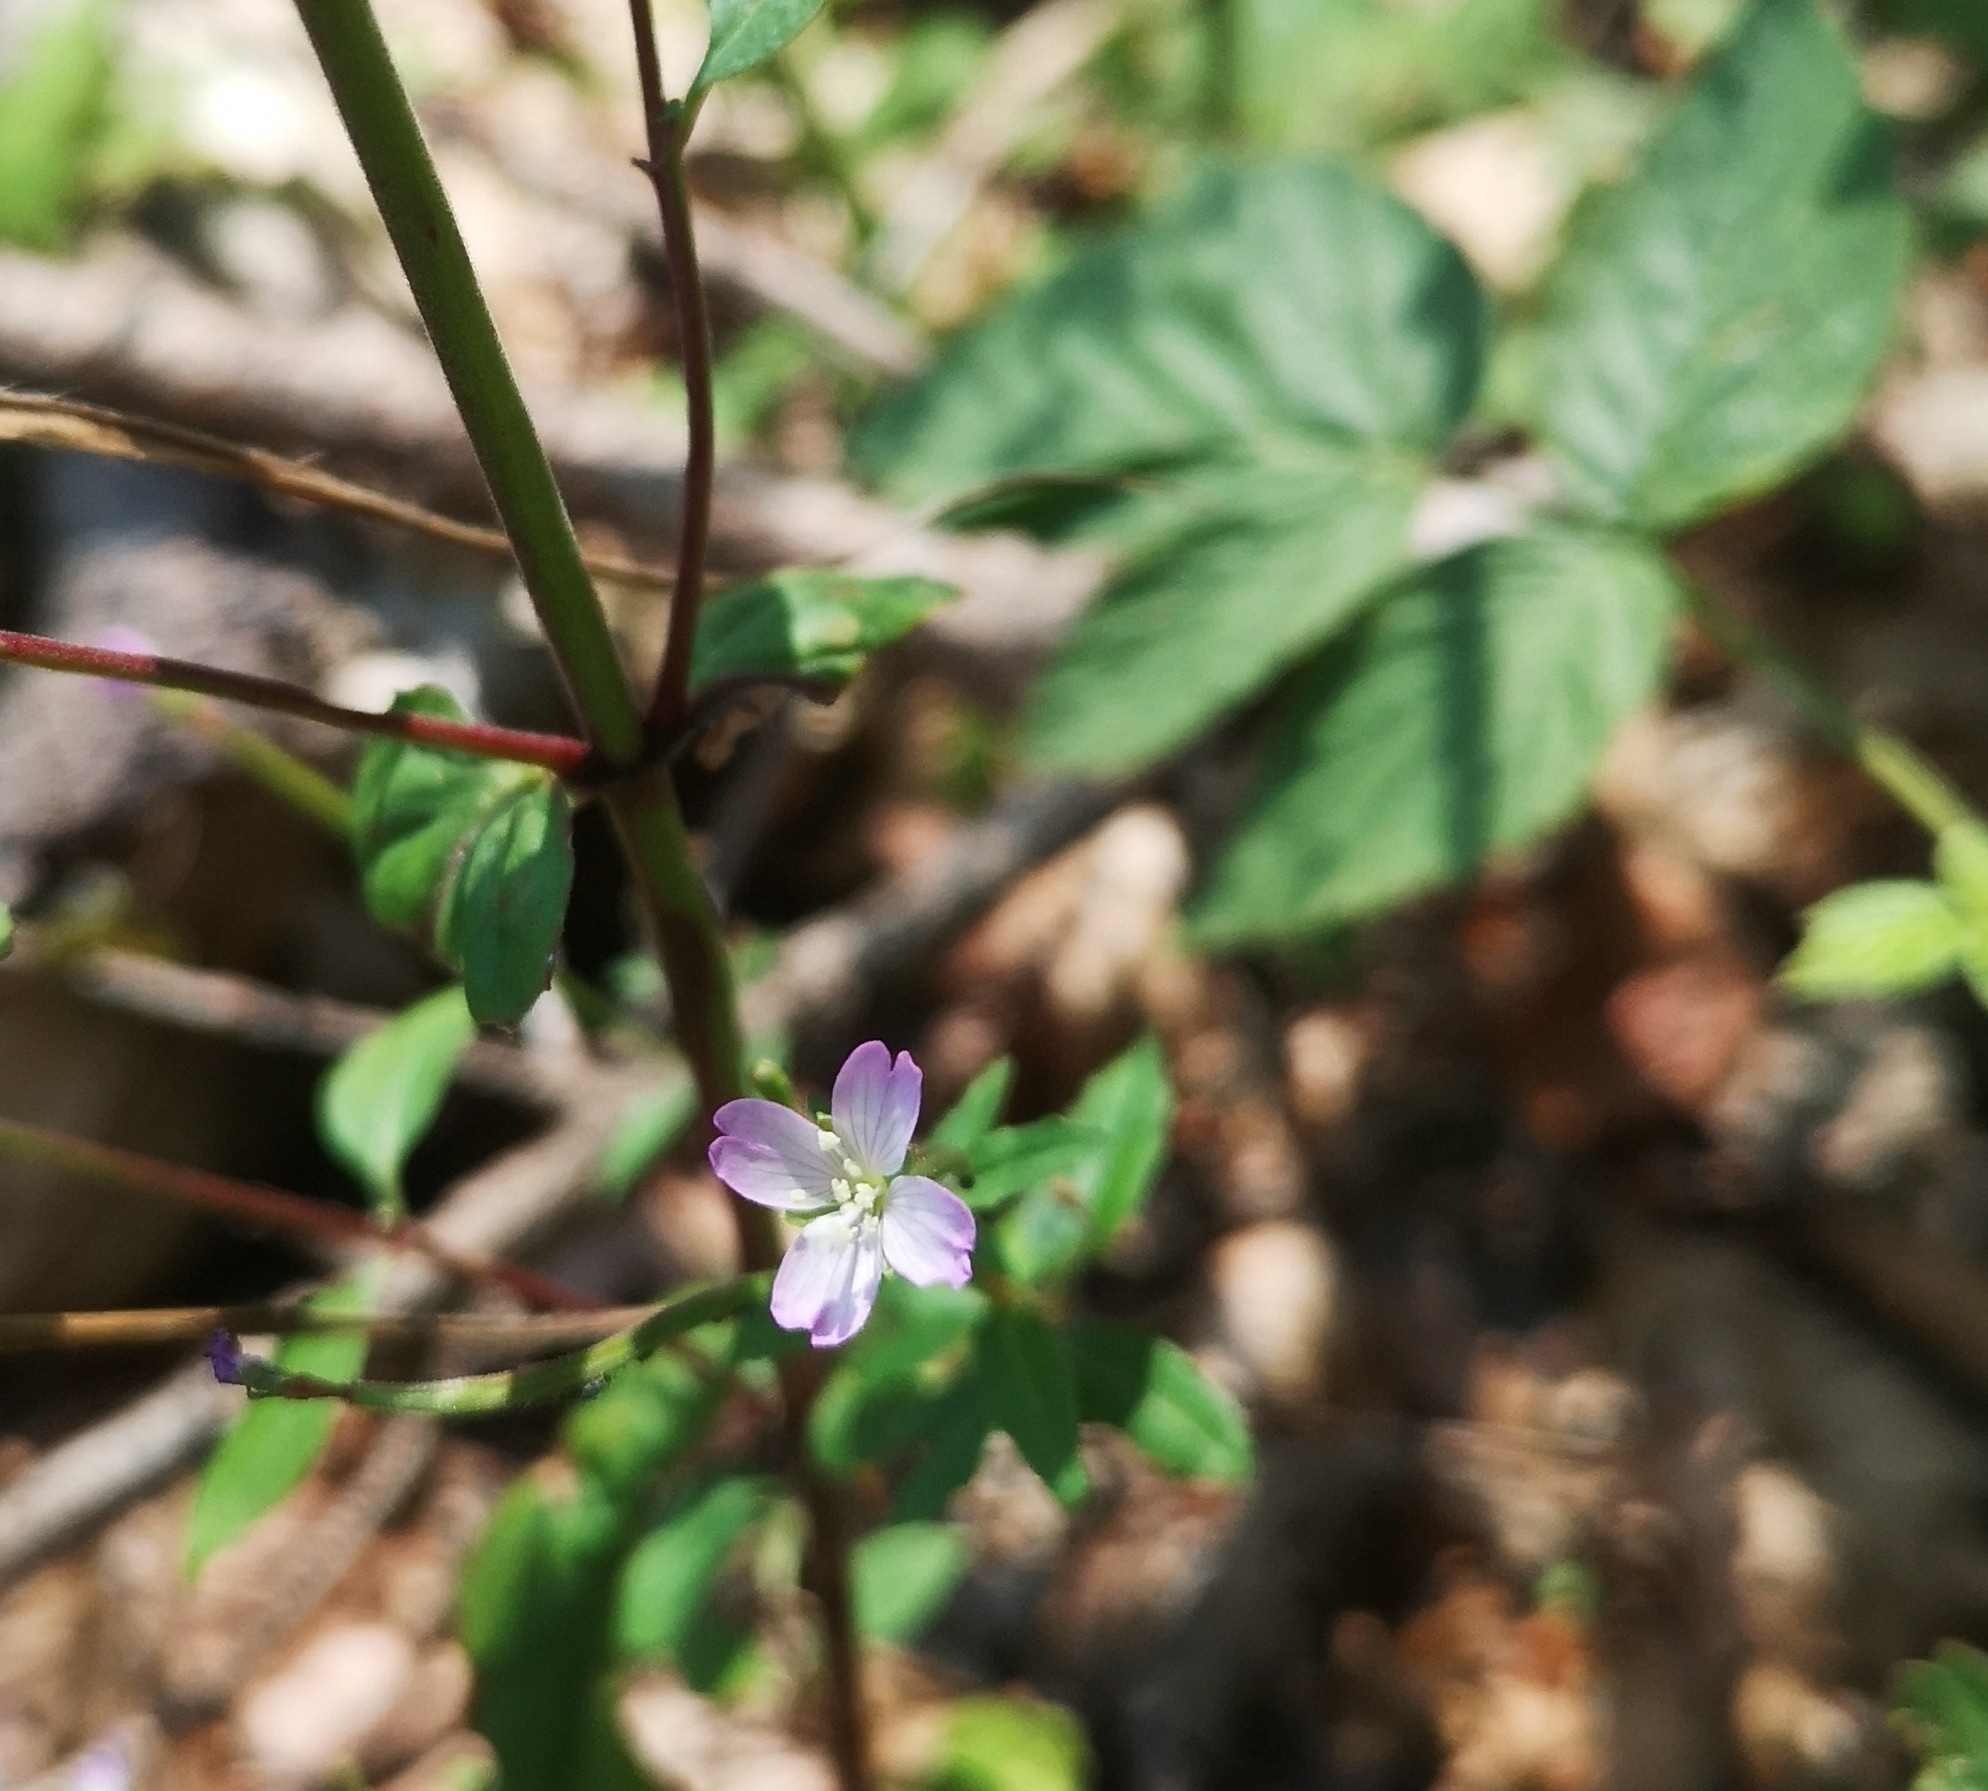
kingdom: Plantae
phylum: Tracheophyta
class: Magnoliopsida
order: Myrtales
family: Onagraceae
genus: Epilobium
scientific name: Epilobium montanum
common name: Broad-leaved willowherb
